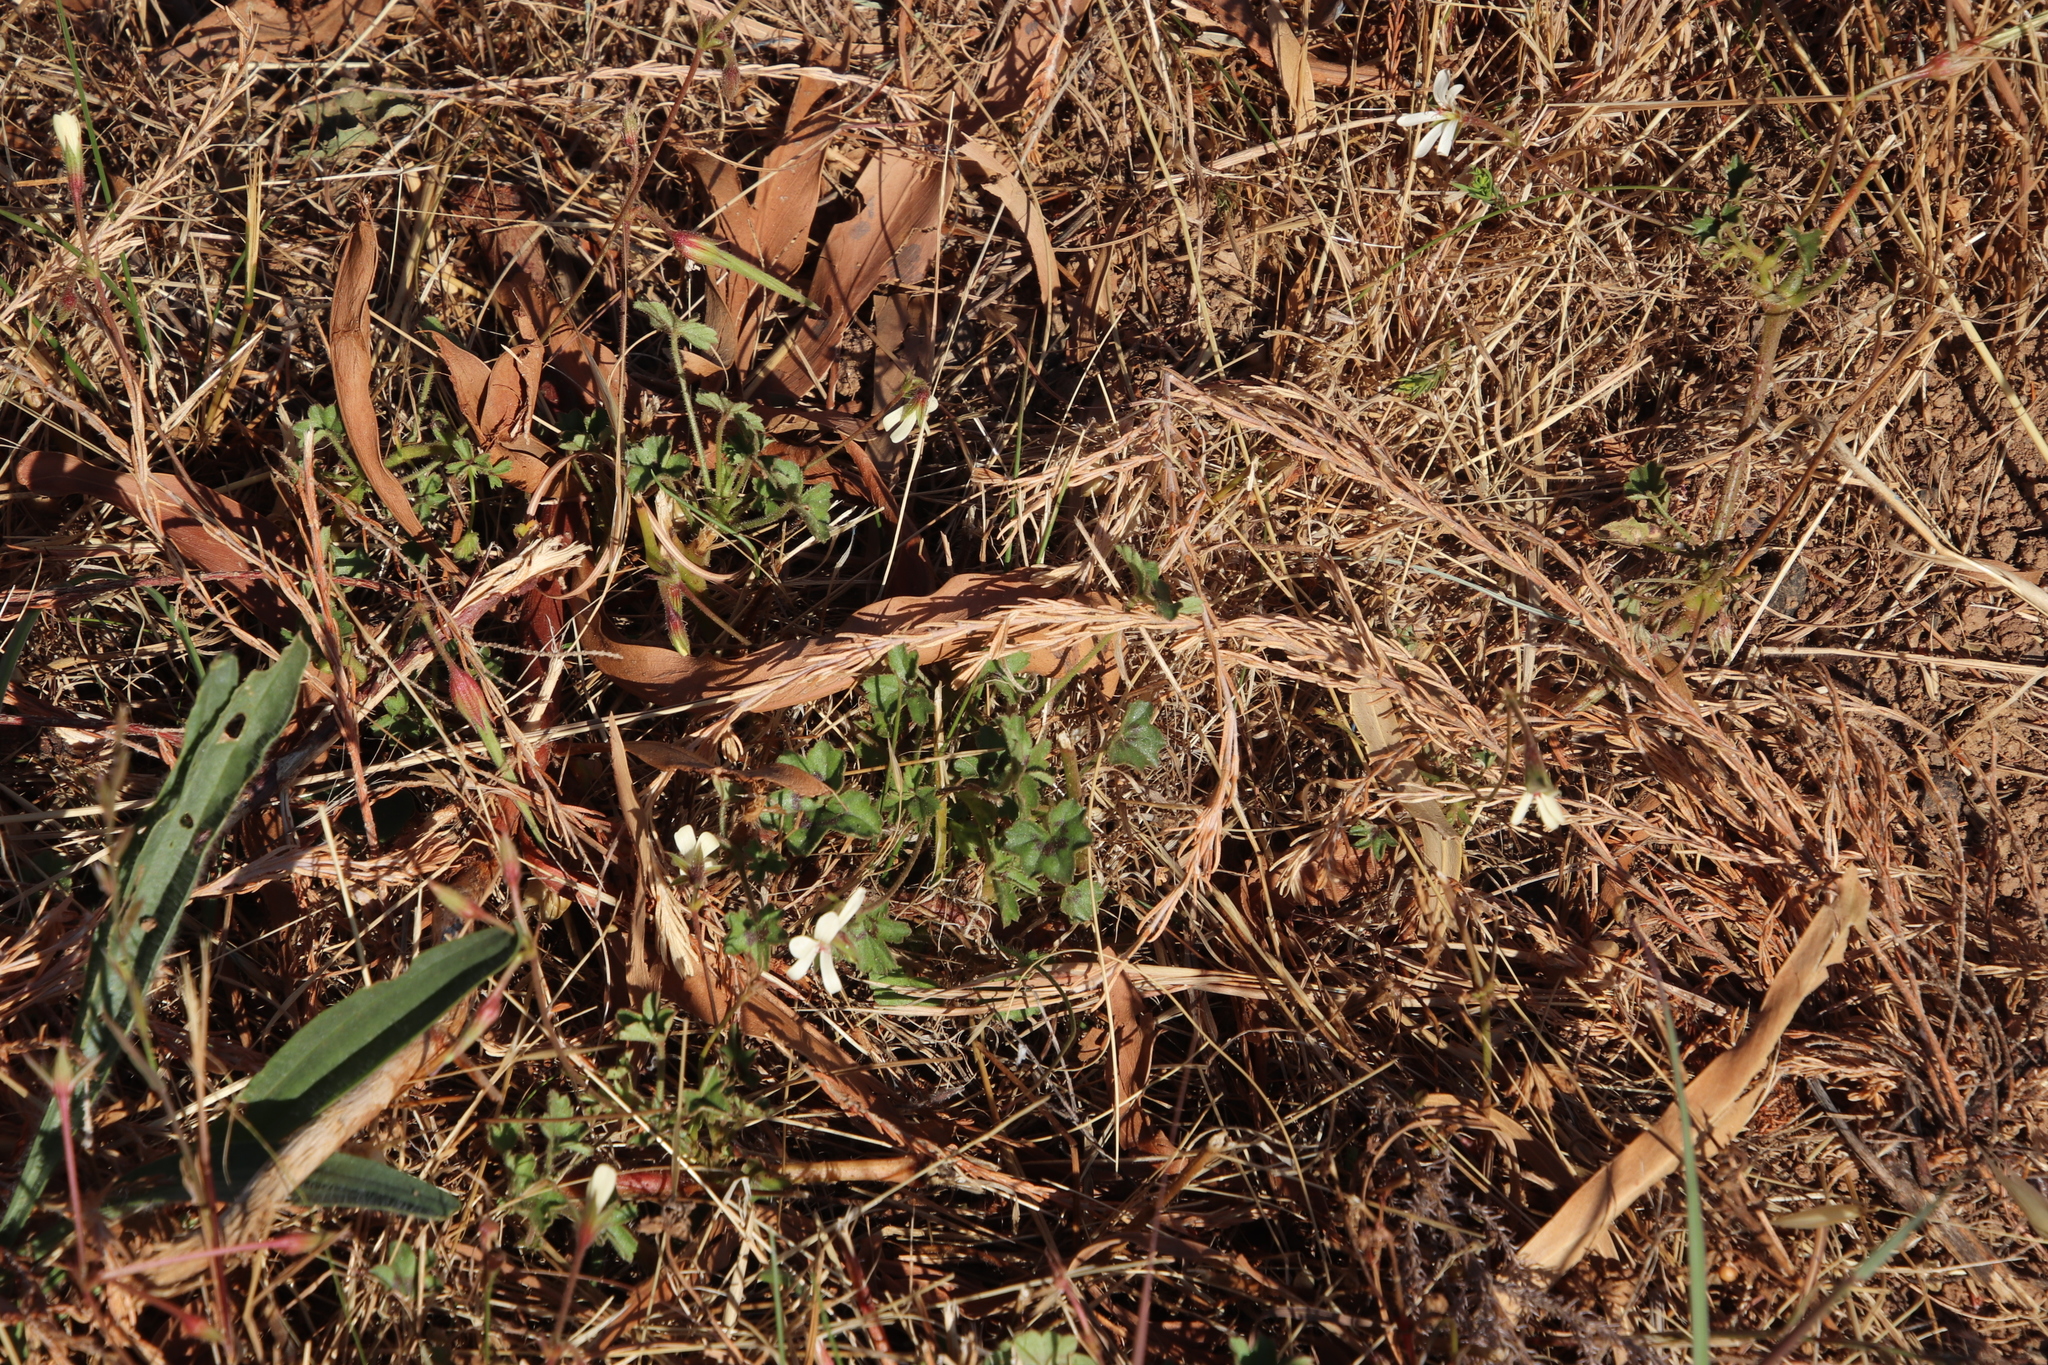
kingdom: Plantae
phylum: Tracheophyta
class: Magnoliopsida
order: Geraniales
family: Geraniaceae
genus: Pelargonium
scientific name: Pelargonium elongatum
